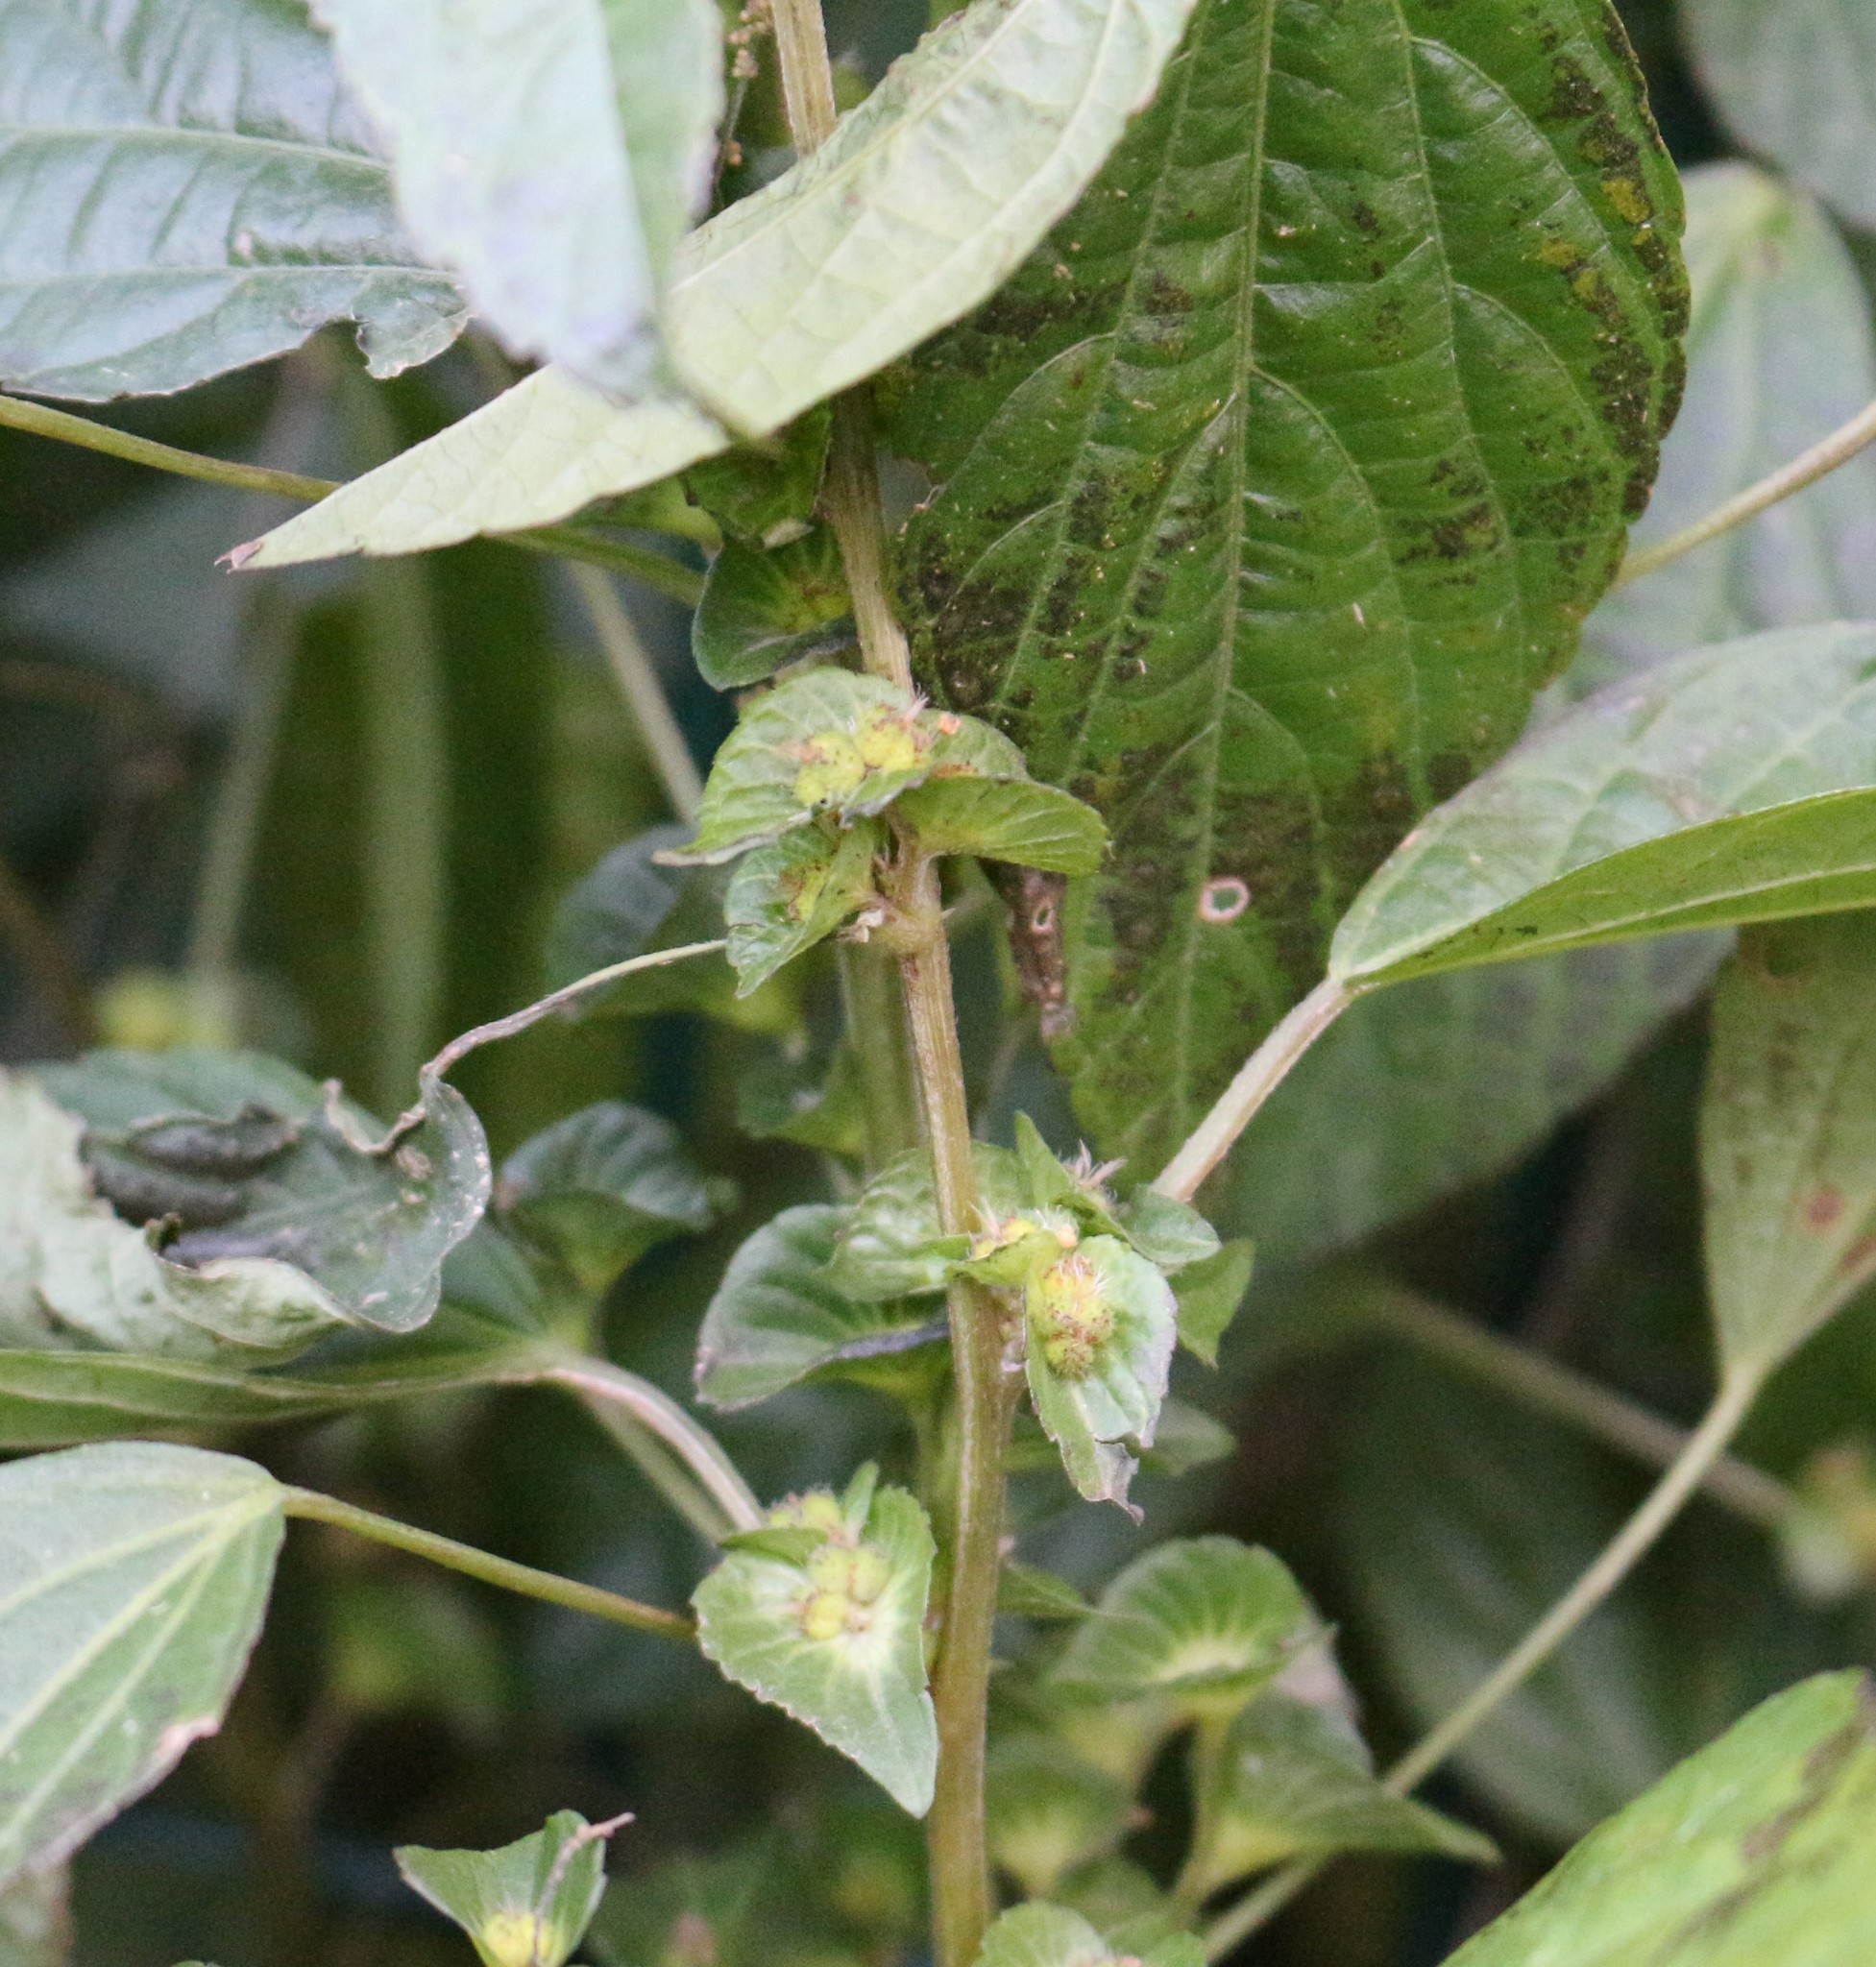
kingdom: Plantae
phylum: Tracheophyta
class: Magnoliopsida
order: Malpighiales
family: Euphorbiaceae
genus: Acalypha
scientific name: Acalypha australis
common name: Asian copperleaf
